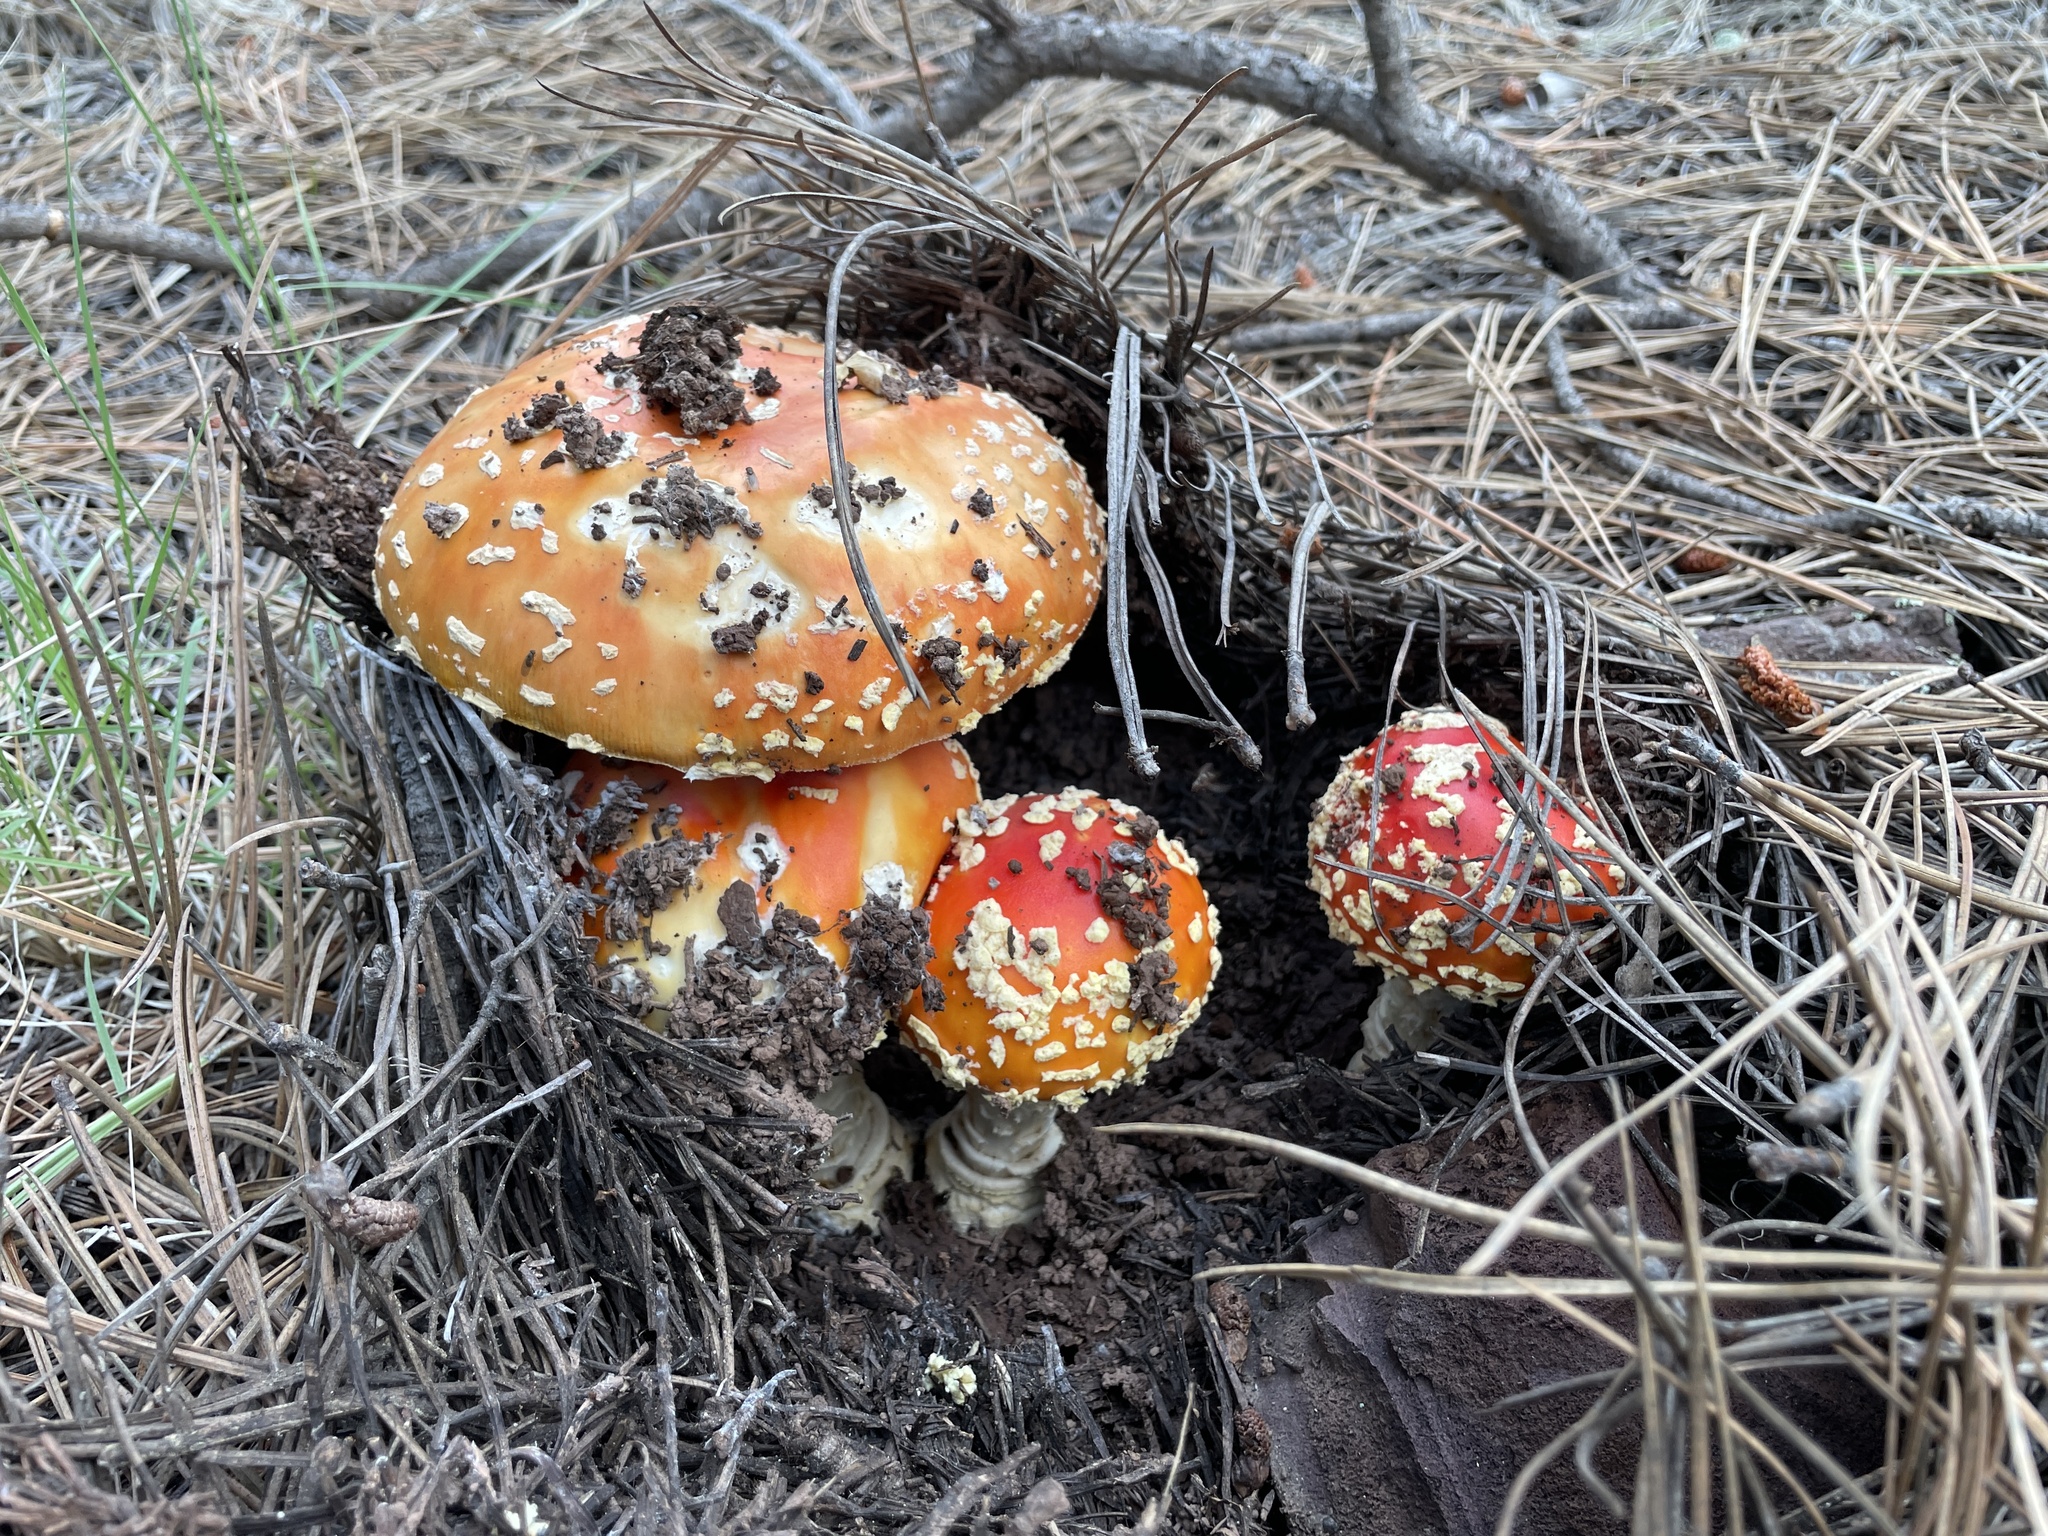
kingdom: Fungi
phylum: Basidiomycota
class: Agaricomycetes
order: Agaricales
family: Amanitaceae
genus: Amanita
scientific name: Amanita muscaria
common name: Fly agaric
